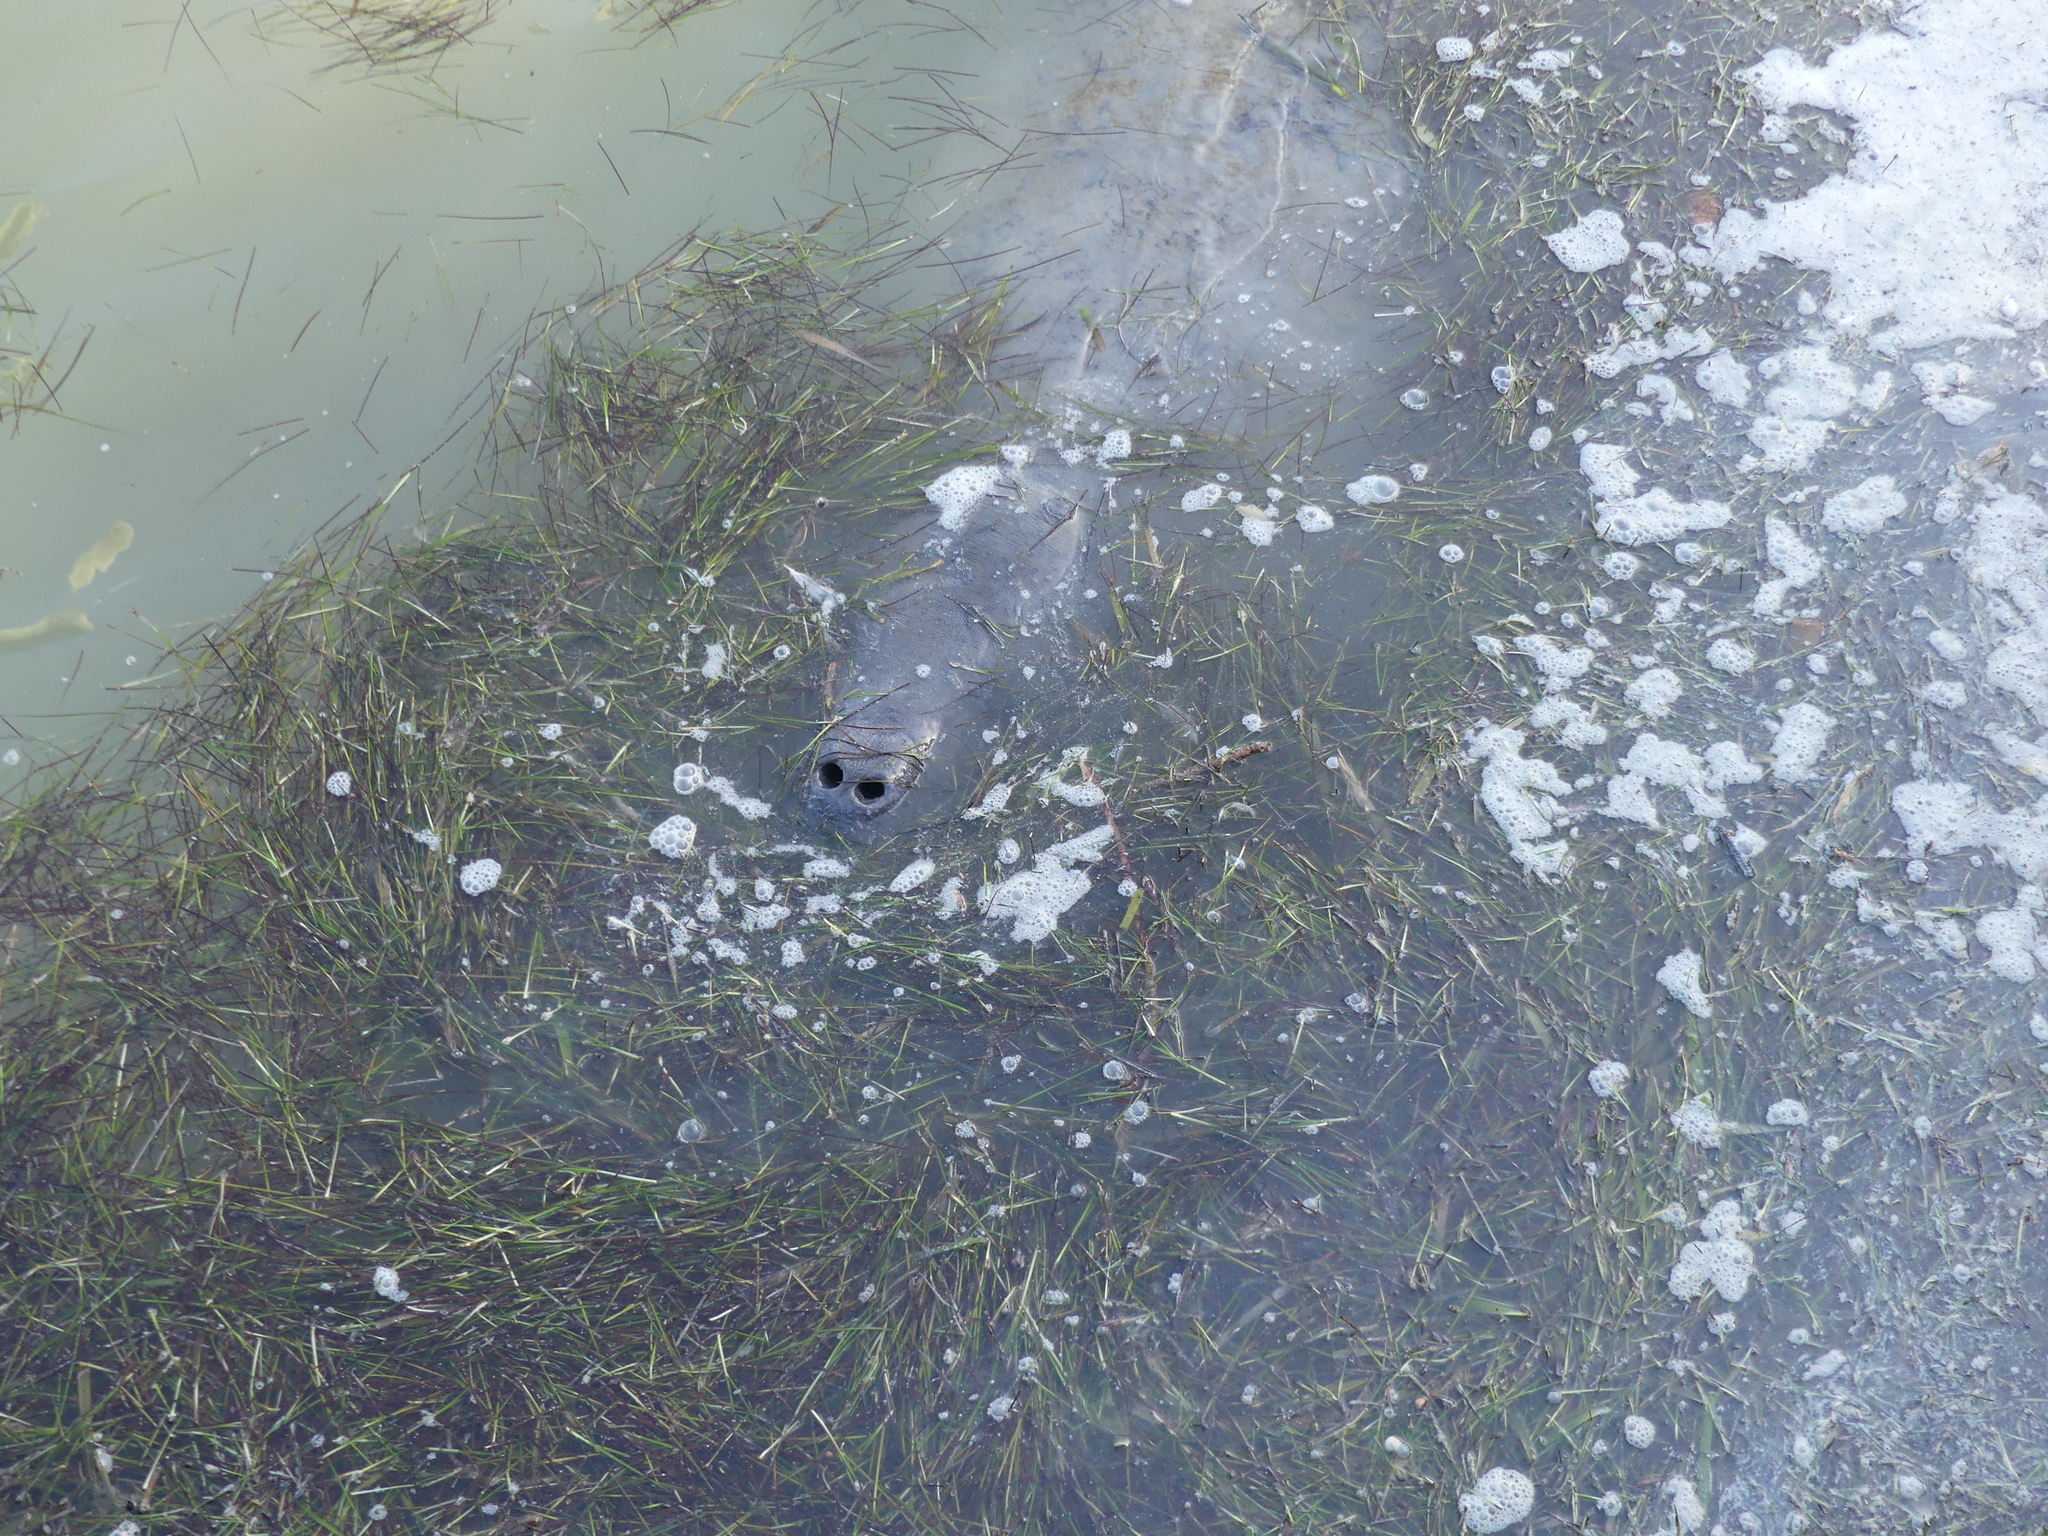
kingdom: Animalia
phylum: Chordata
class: Mammalia
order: Sirenia
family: Trichechidae
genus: Trichechus
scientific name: Trichechus manatus
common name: West indian manatee
